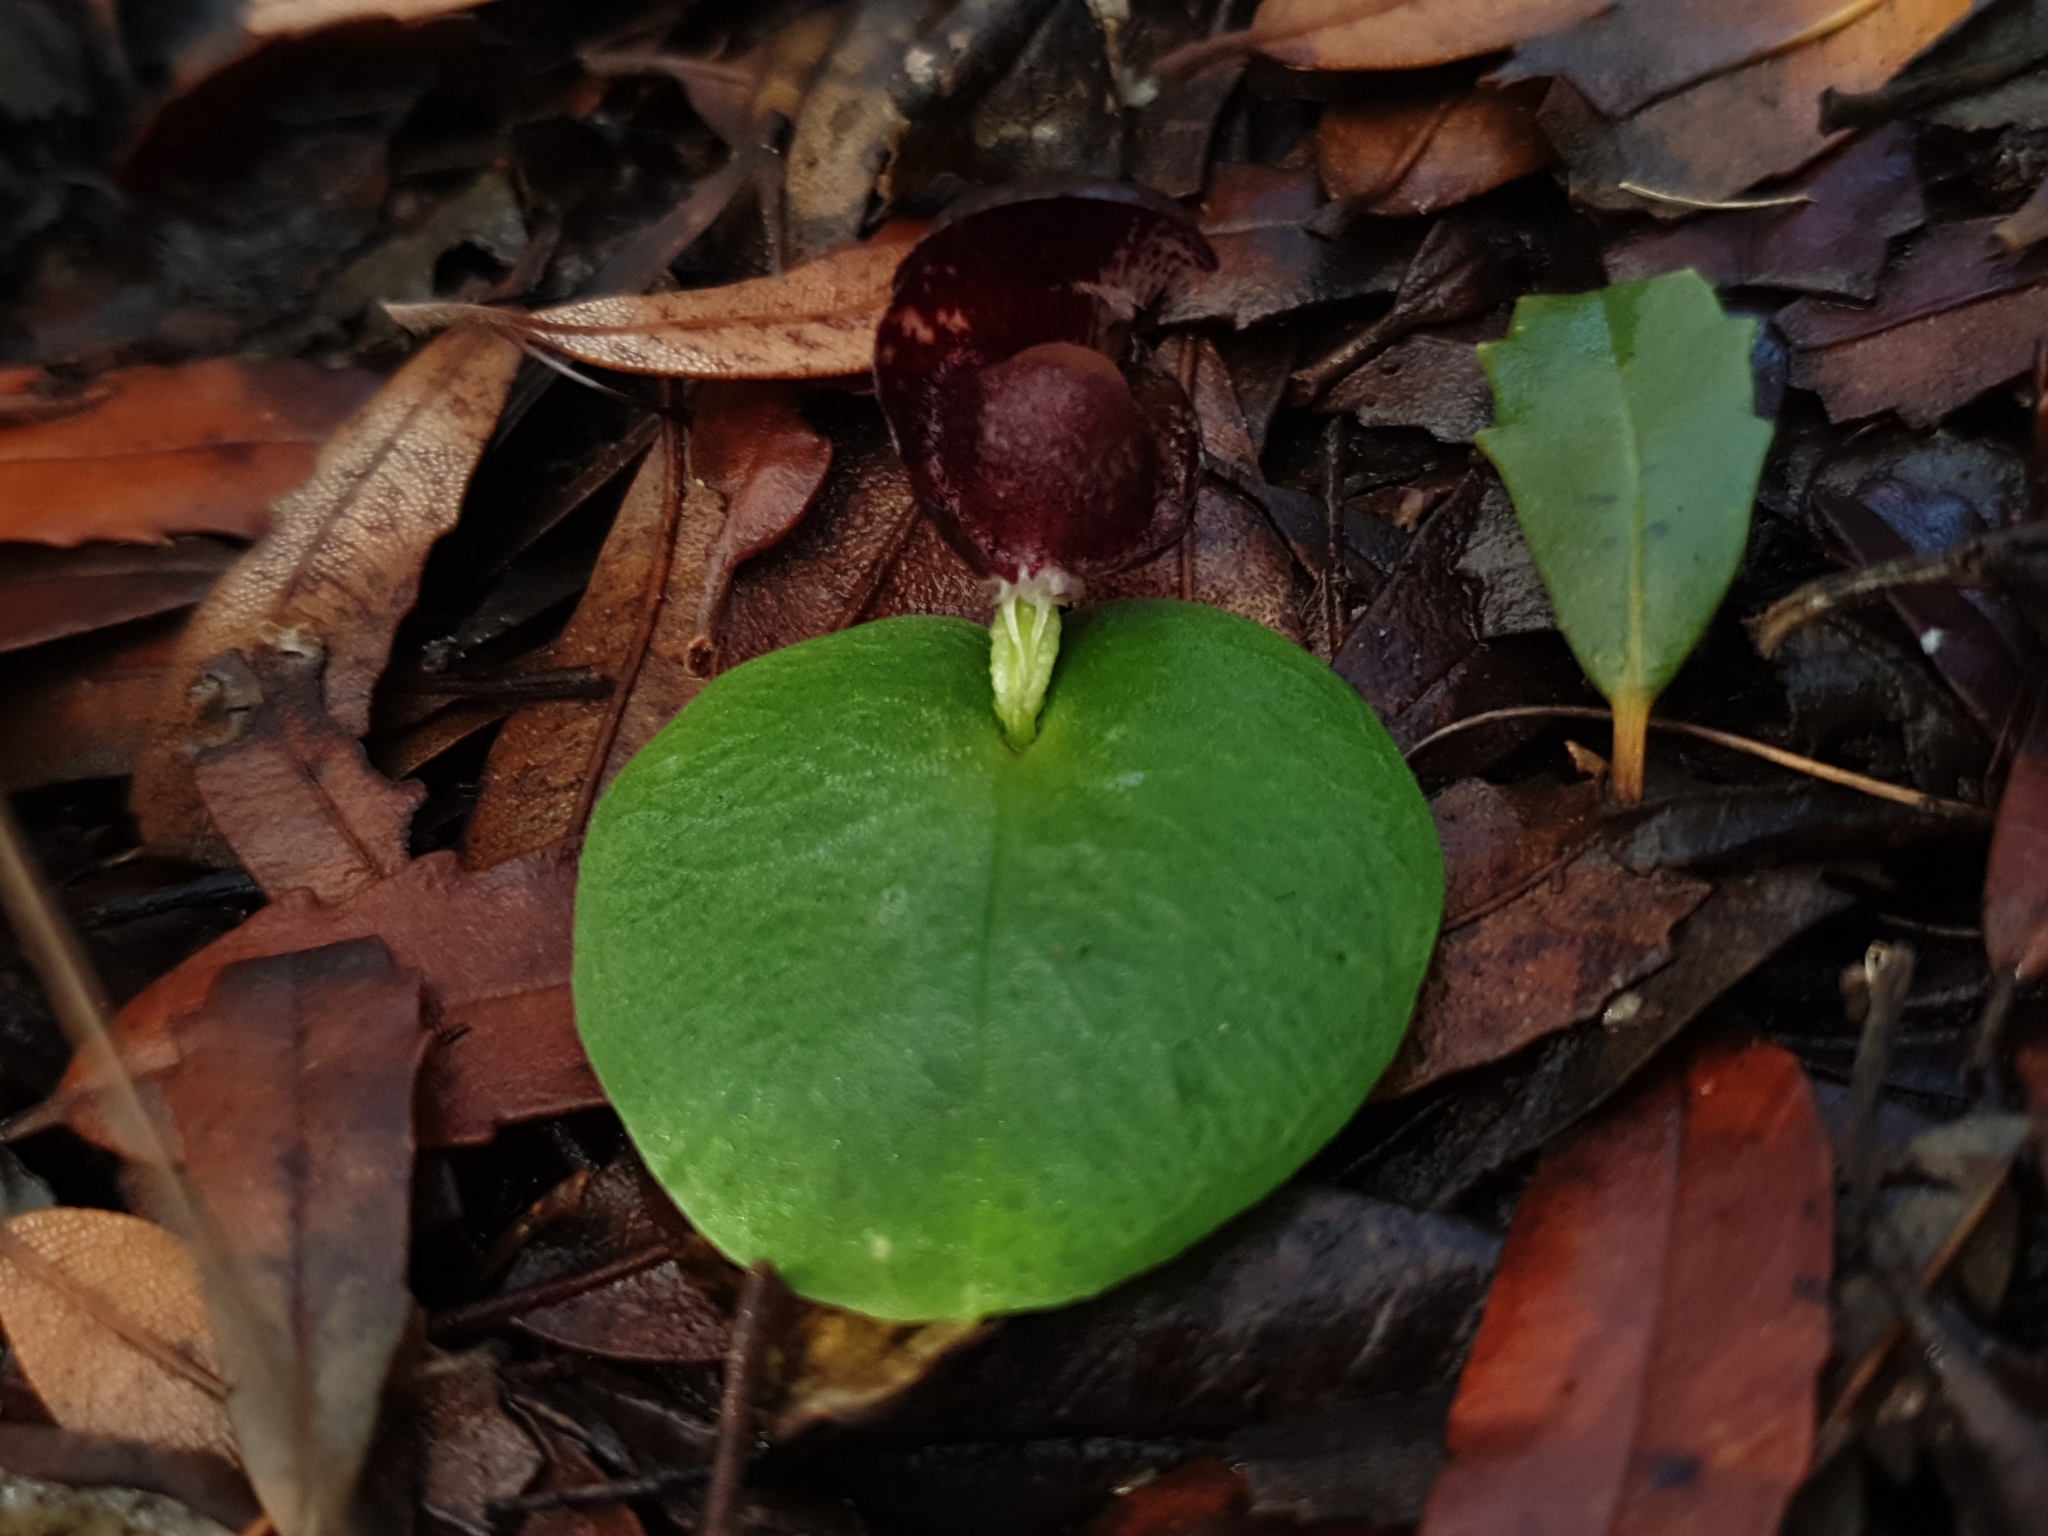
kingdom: Plantae
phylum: Tracheophyta
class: Liliopsida
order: Asparagales
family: Orchidaceae
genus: Corybas
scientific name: Corybas recurvus
